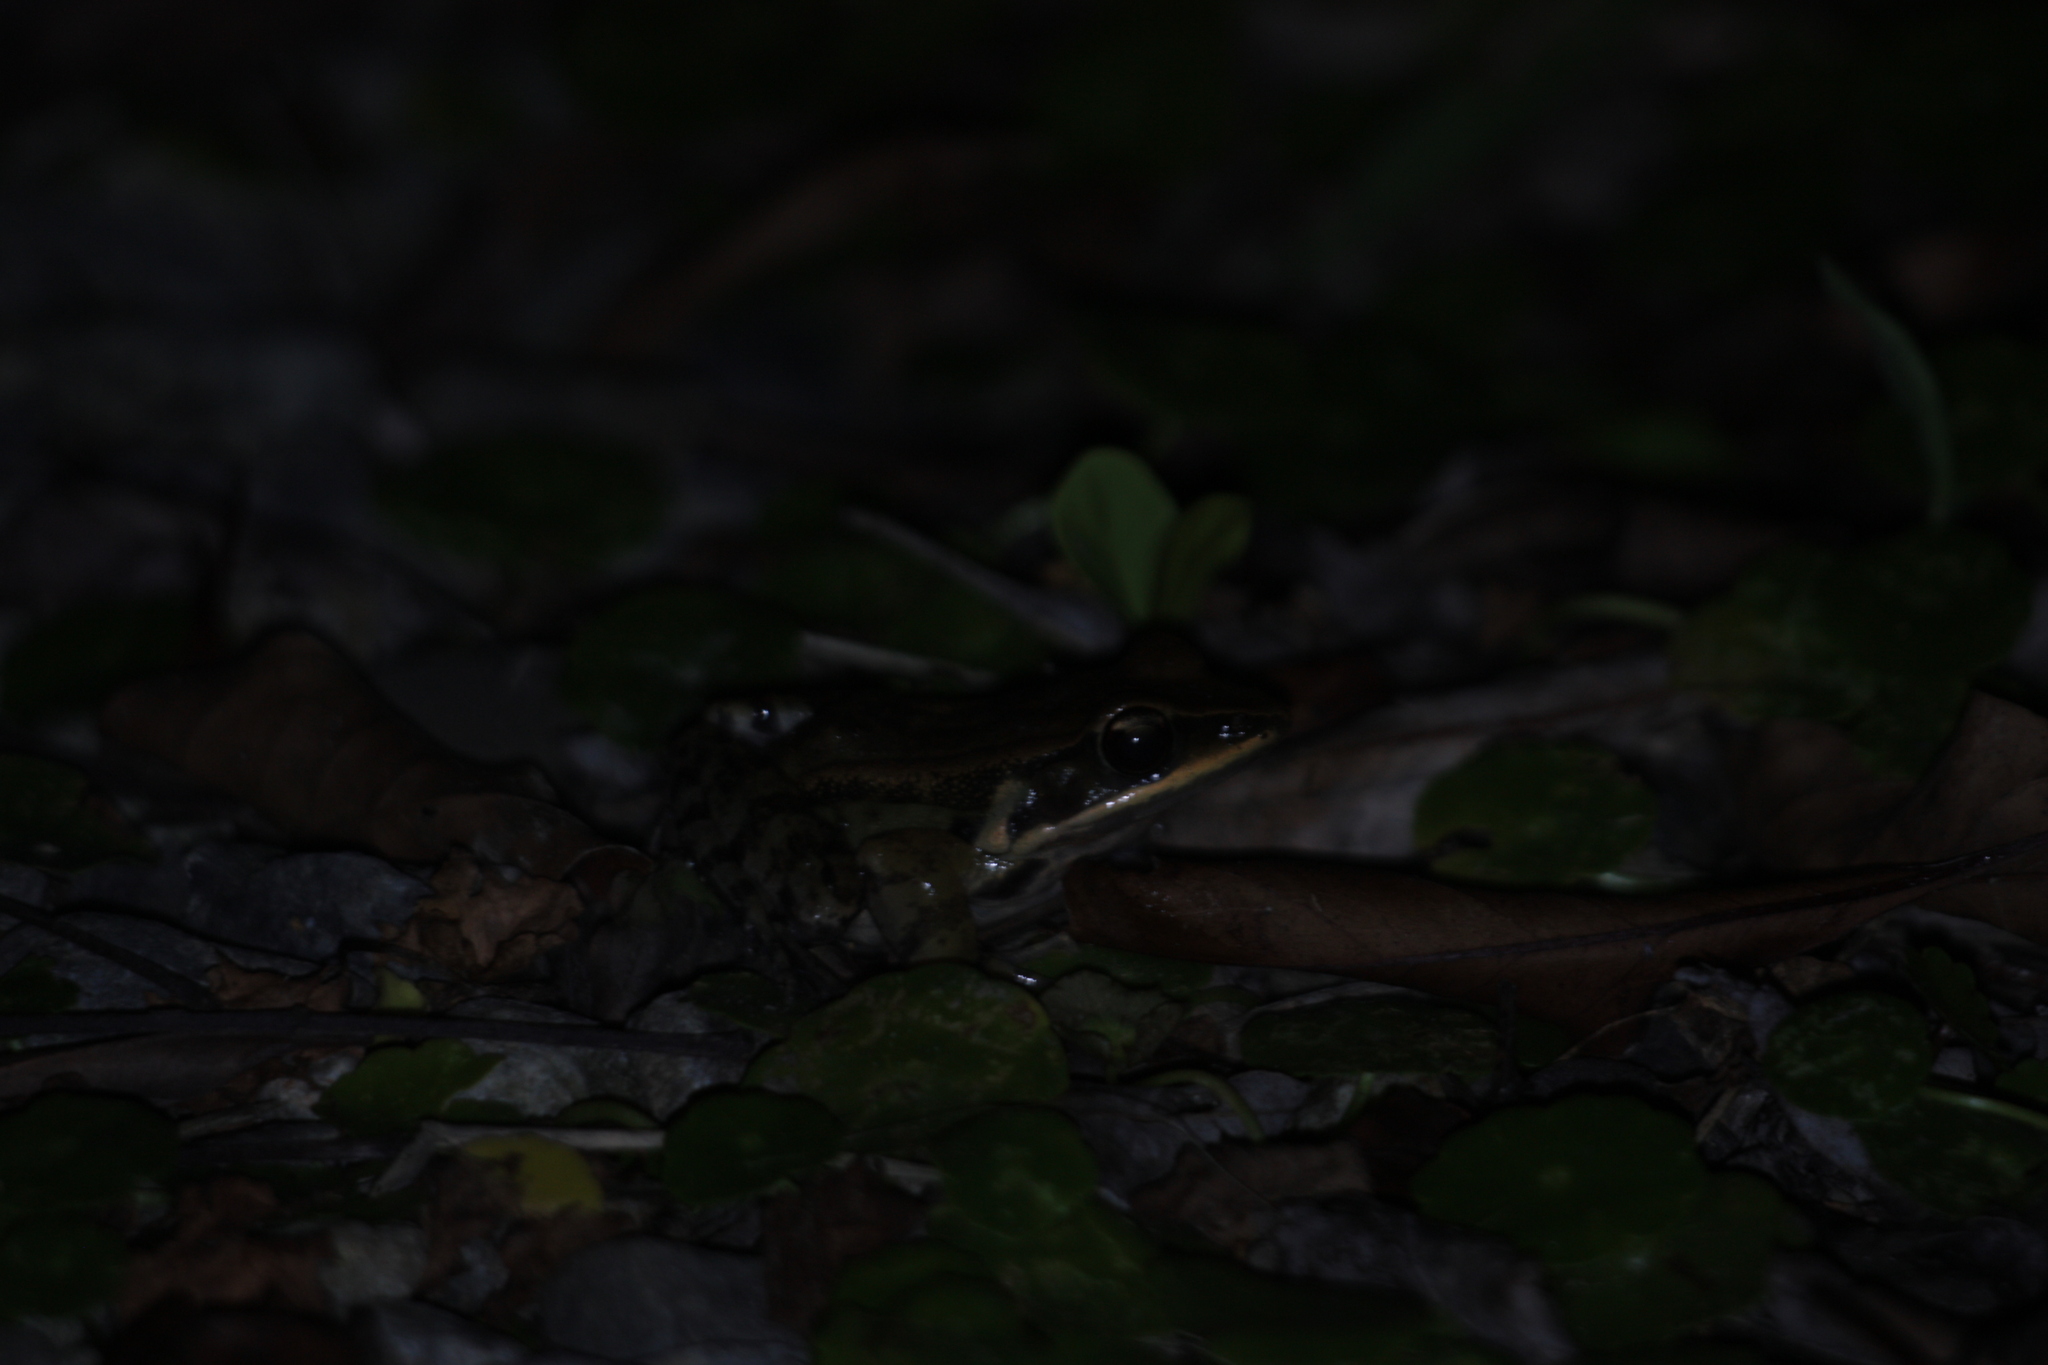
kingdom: Animalia
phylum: Chordata
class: Amphibia
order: Anura
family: Ranidae
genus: Hylarana
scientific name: Hylarana latouchii
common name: Broad-folded frog
